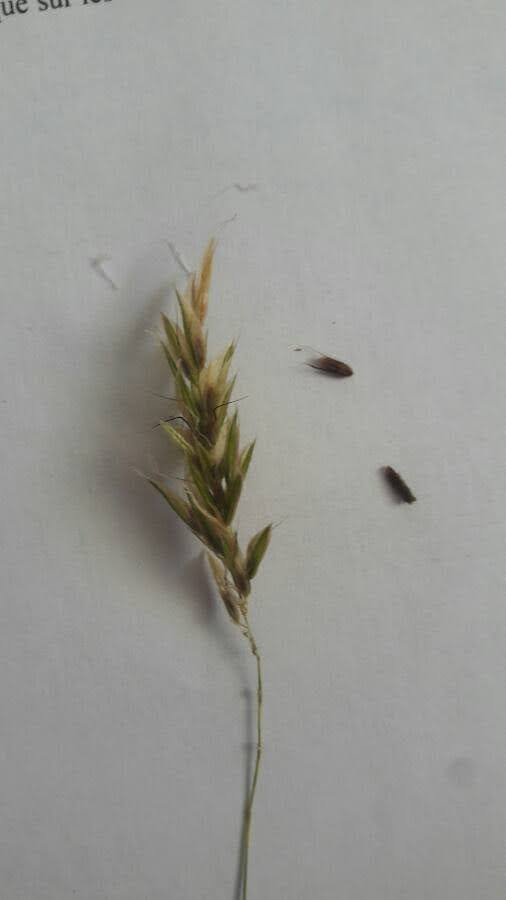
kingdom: Plantae
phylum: Tracheophyta
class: Liliopsida
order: Poales
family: Poaceae
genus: Anthoxanthum
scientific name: Anthoxanthum odoratum
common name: Sweet vernalgrass
